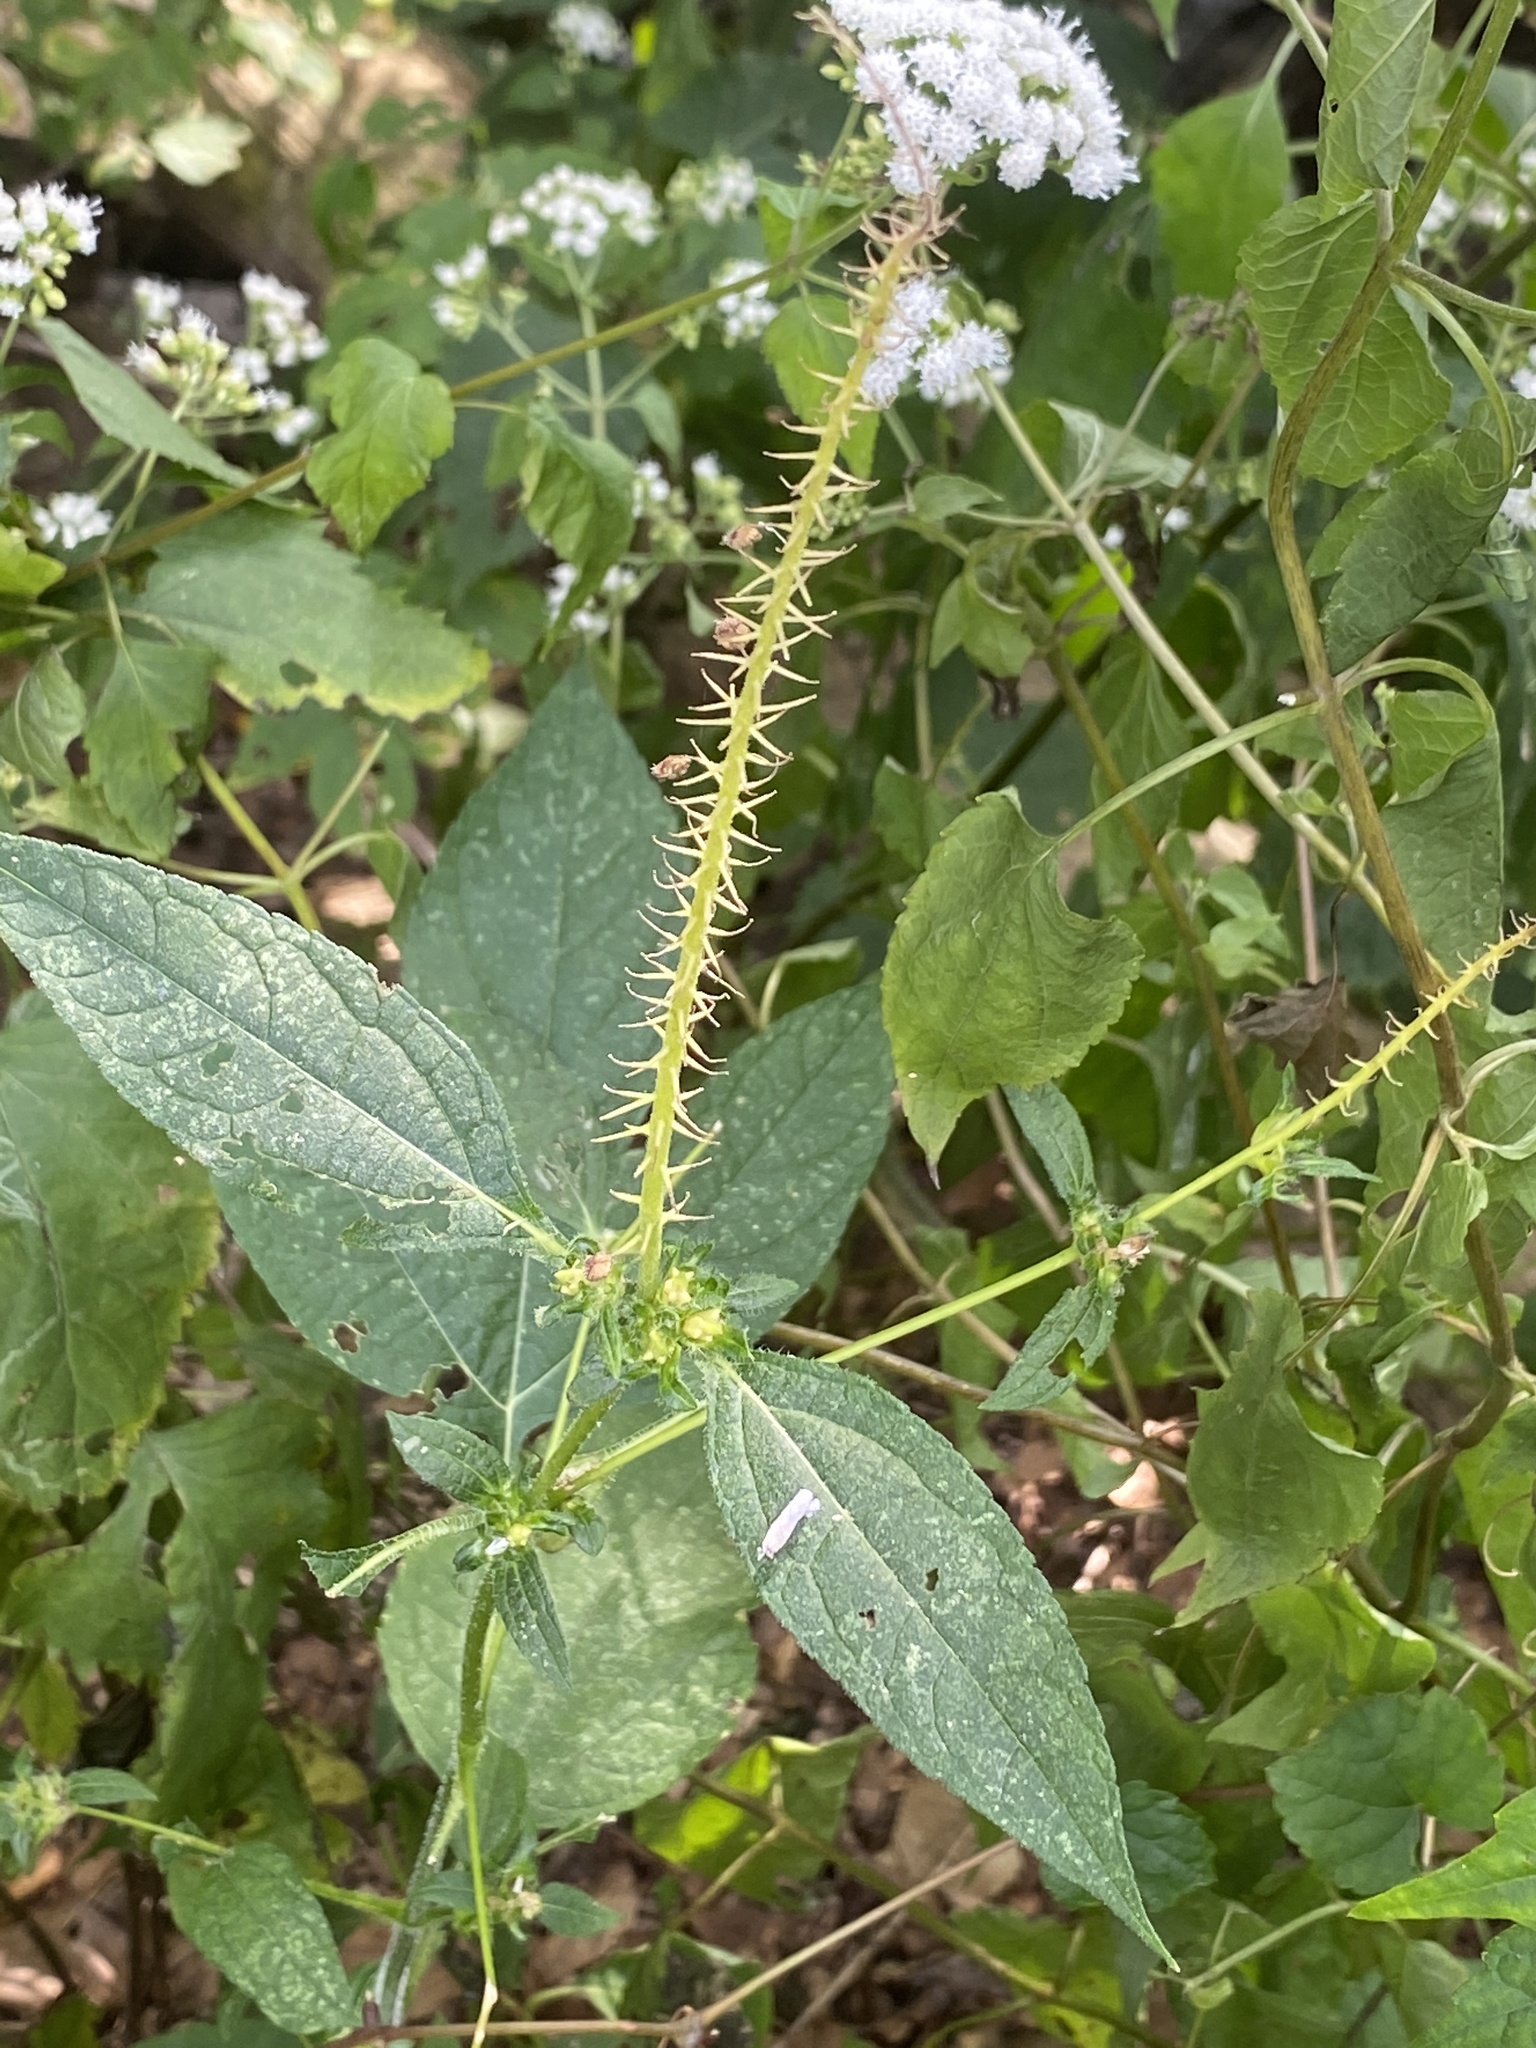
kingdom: Plantae
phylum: Tracheophyta
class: Magnoliopsida
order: Asterales
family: Asteraceae
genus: Ambrosia
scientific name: Ambrosia trifida
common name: Giant ragweed
